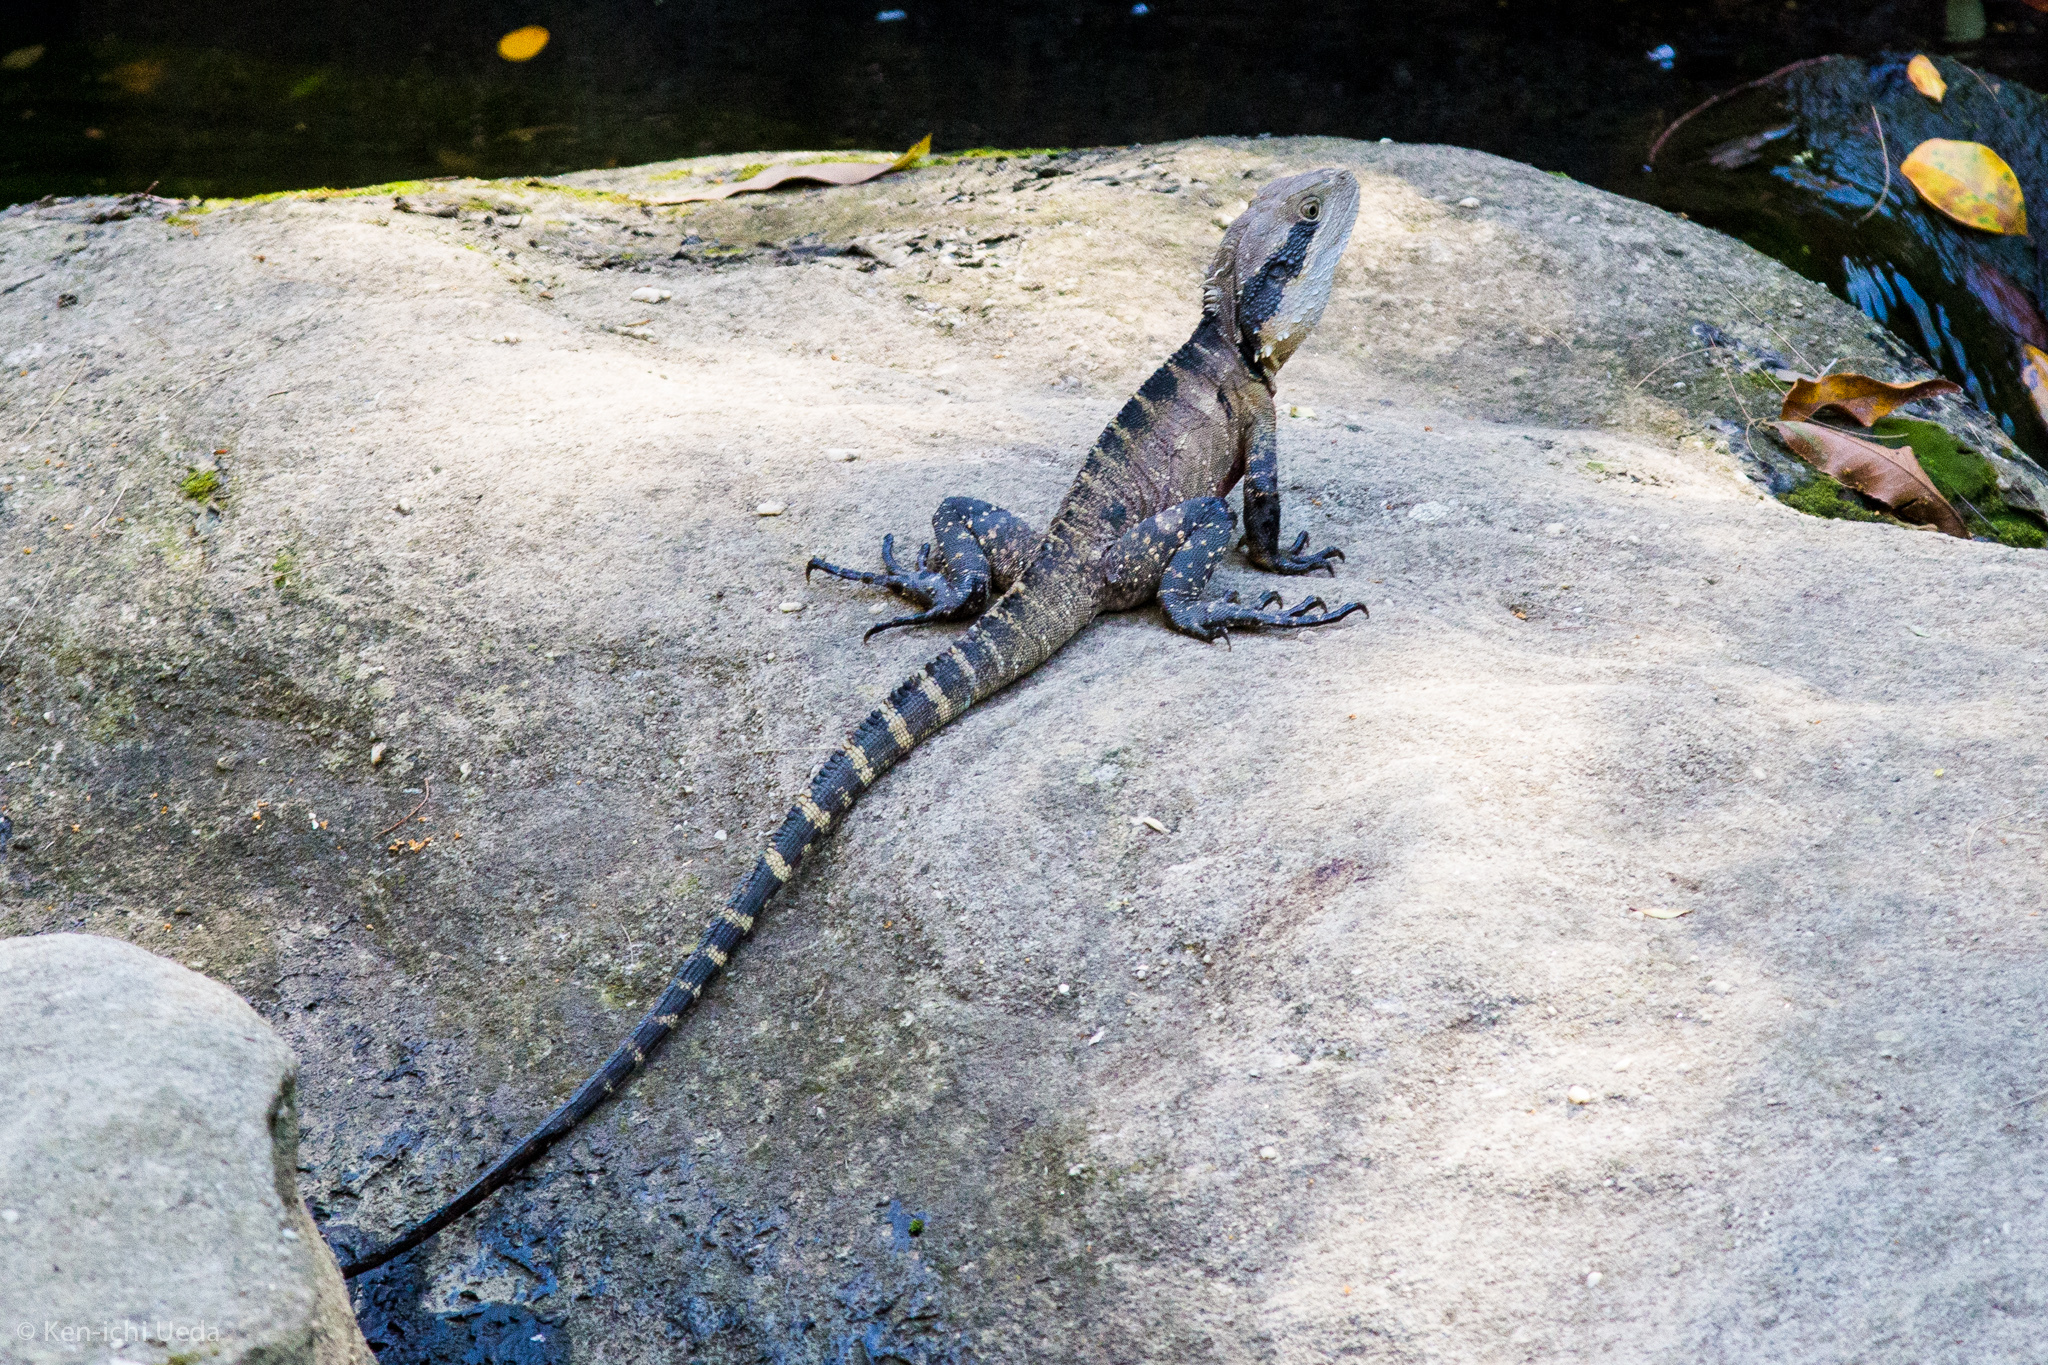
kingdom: Animalia
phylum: Chordata
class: Squamata
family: Agamidae
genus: Intellagama
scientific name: Intellagama lesueurii
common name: Eastern water dragon
